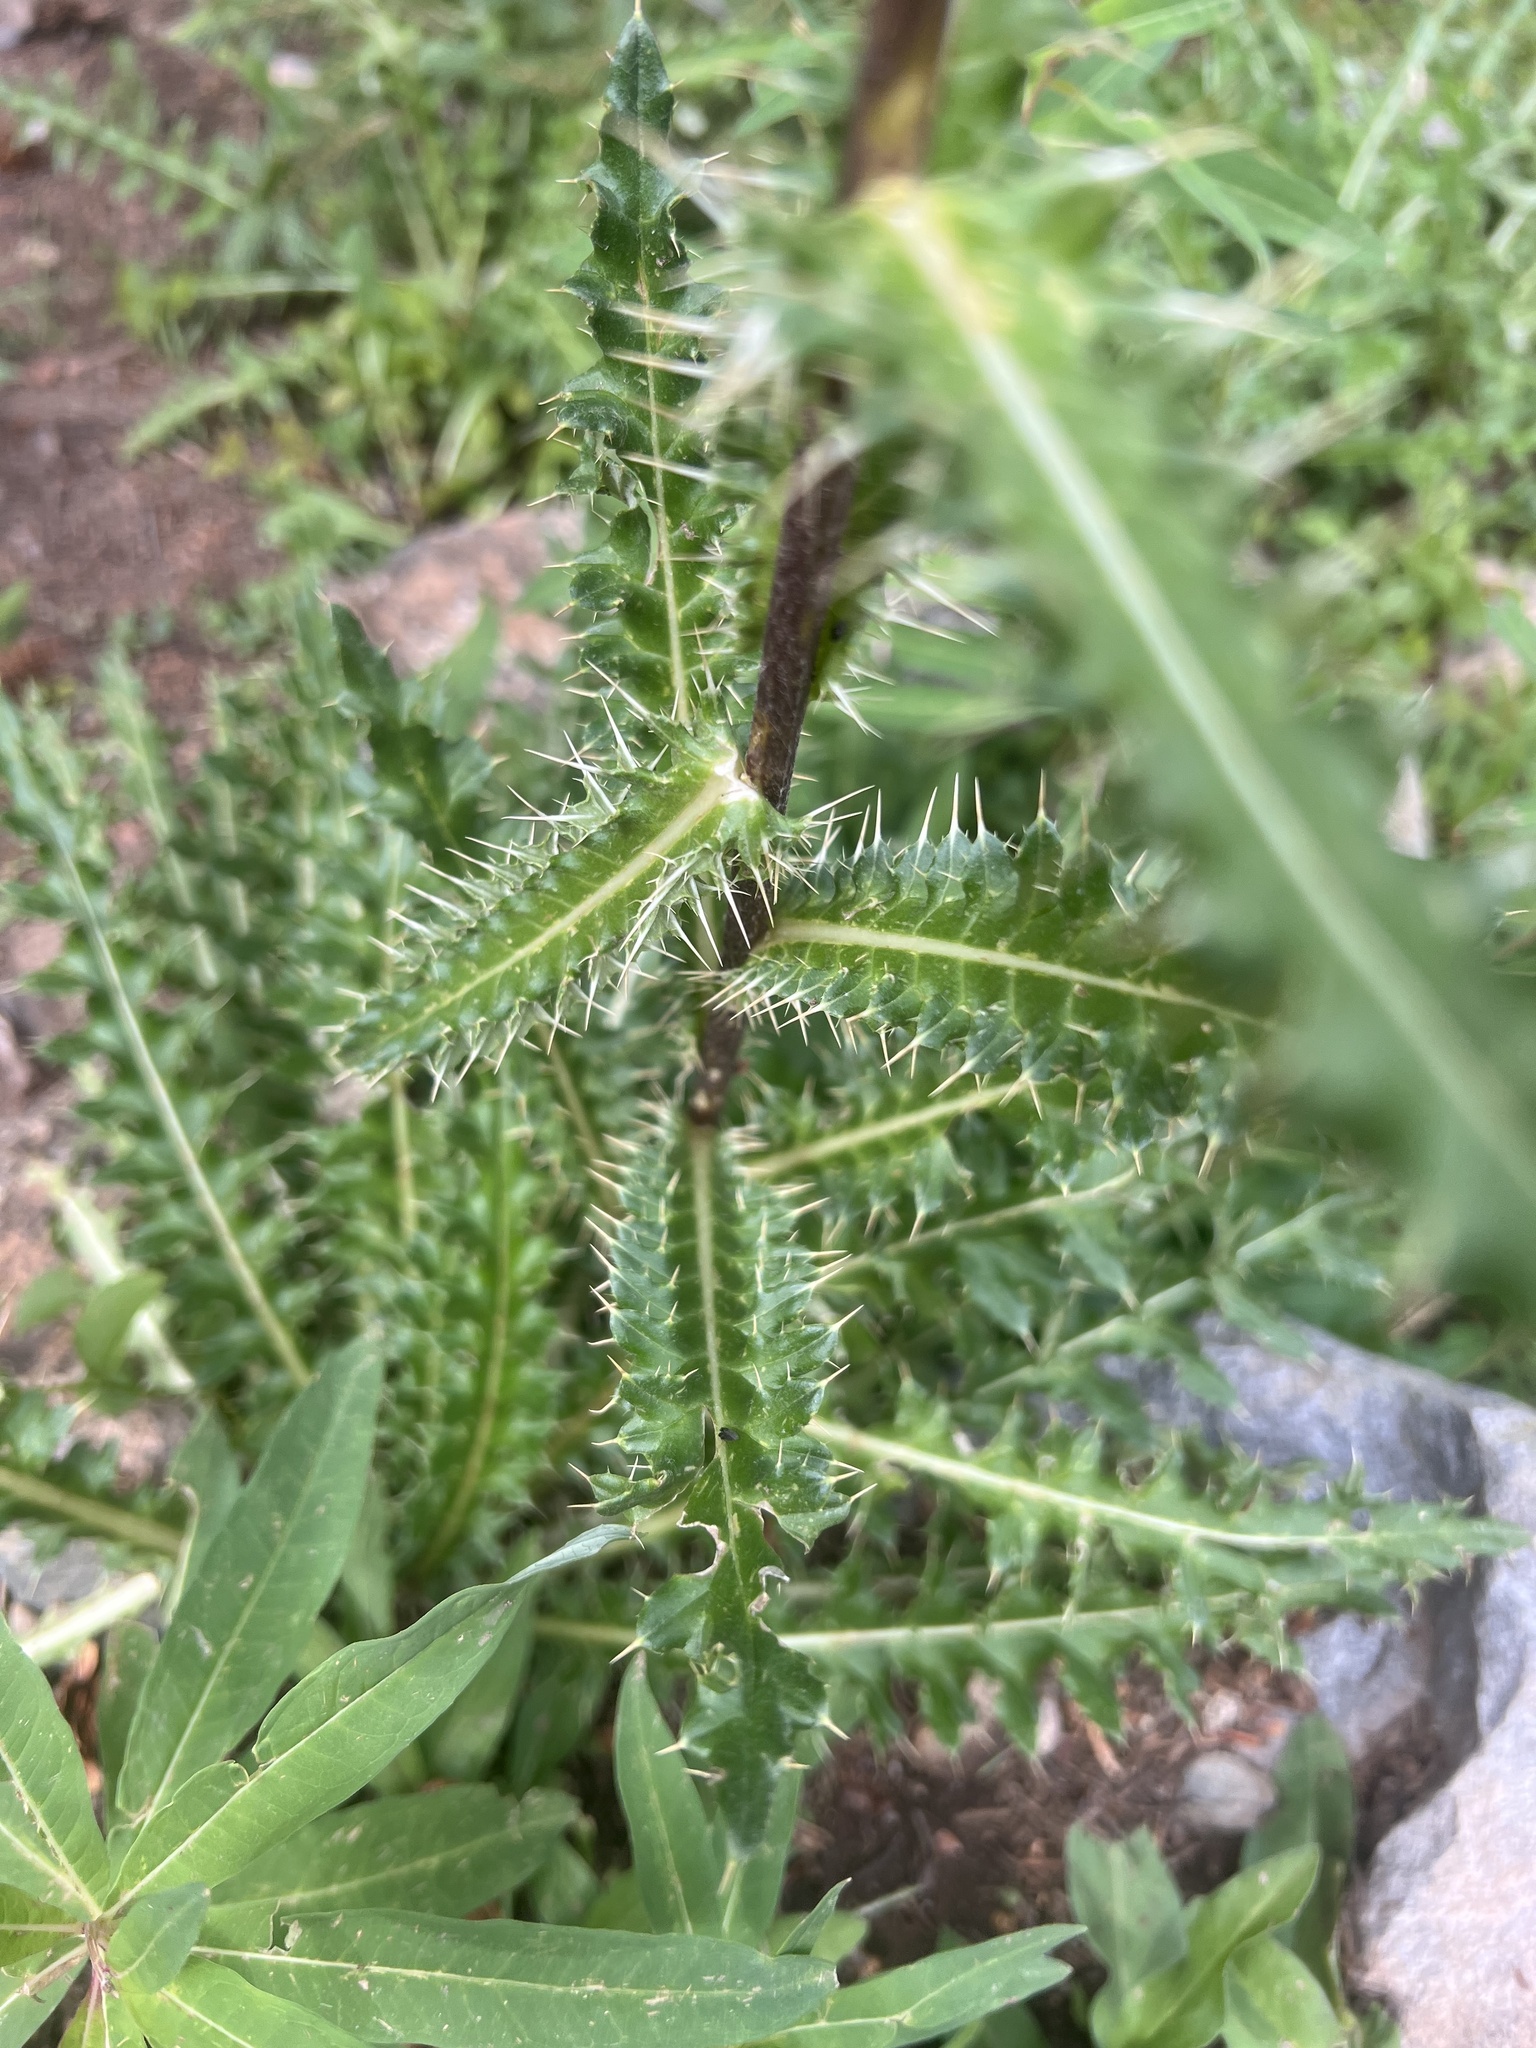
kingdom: Plantae
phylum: Tracheophyta
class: Magnoliopsida
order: Asterales
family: Asteraceae
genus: Cirsium
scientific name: Cirsium griseum
